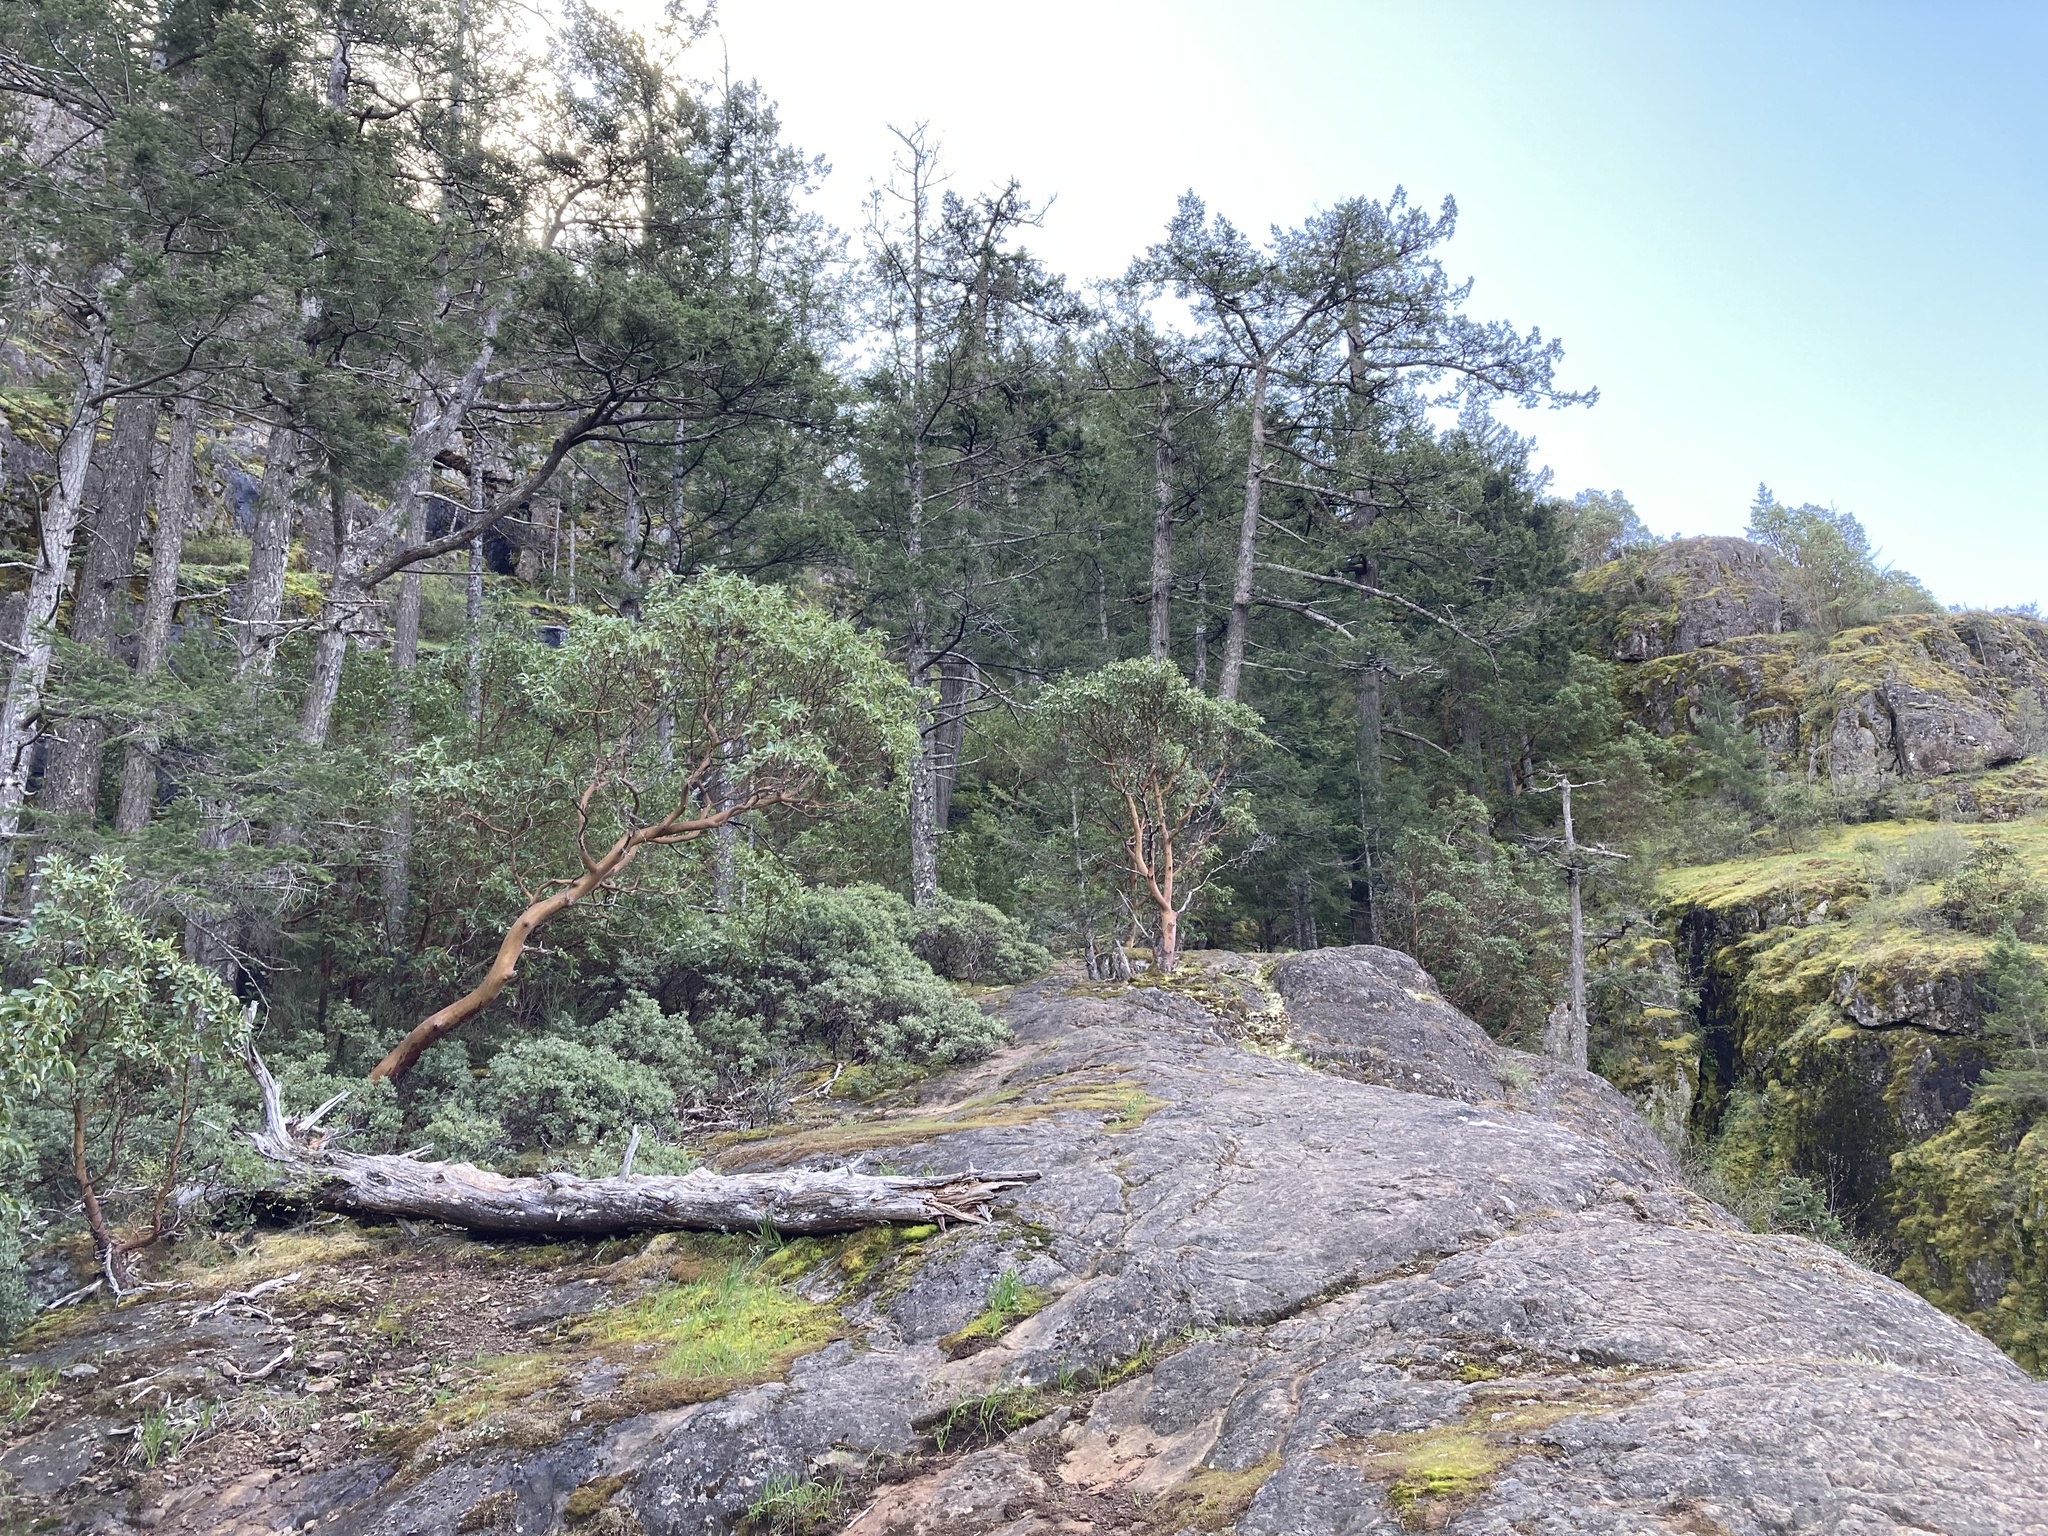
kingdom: Plantae
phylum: Tracheophyta
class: Magnoliopsida
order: Ericales
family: Ericaceae
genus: Arctostaphylos
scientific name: Arctostaphylos columbiana
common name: Bristly bearberry
